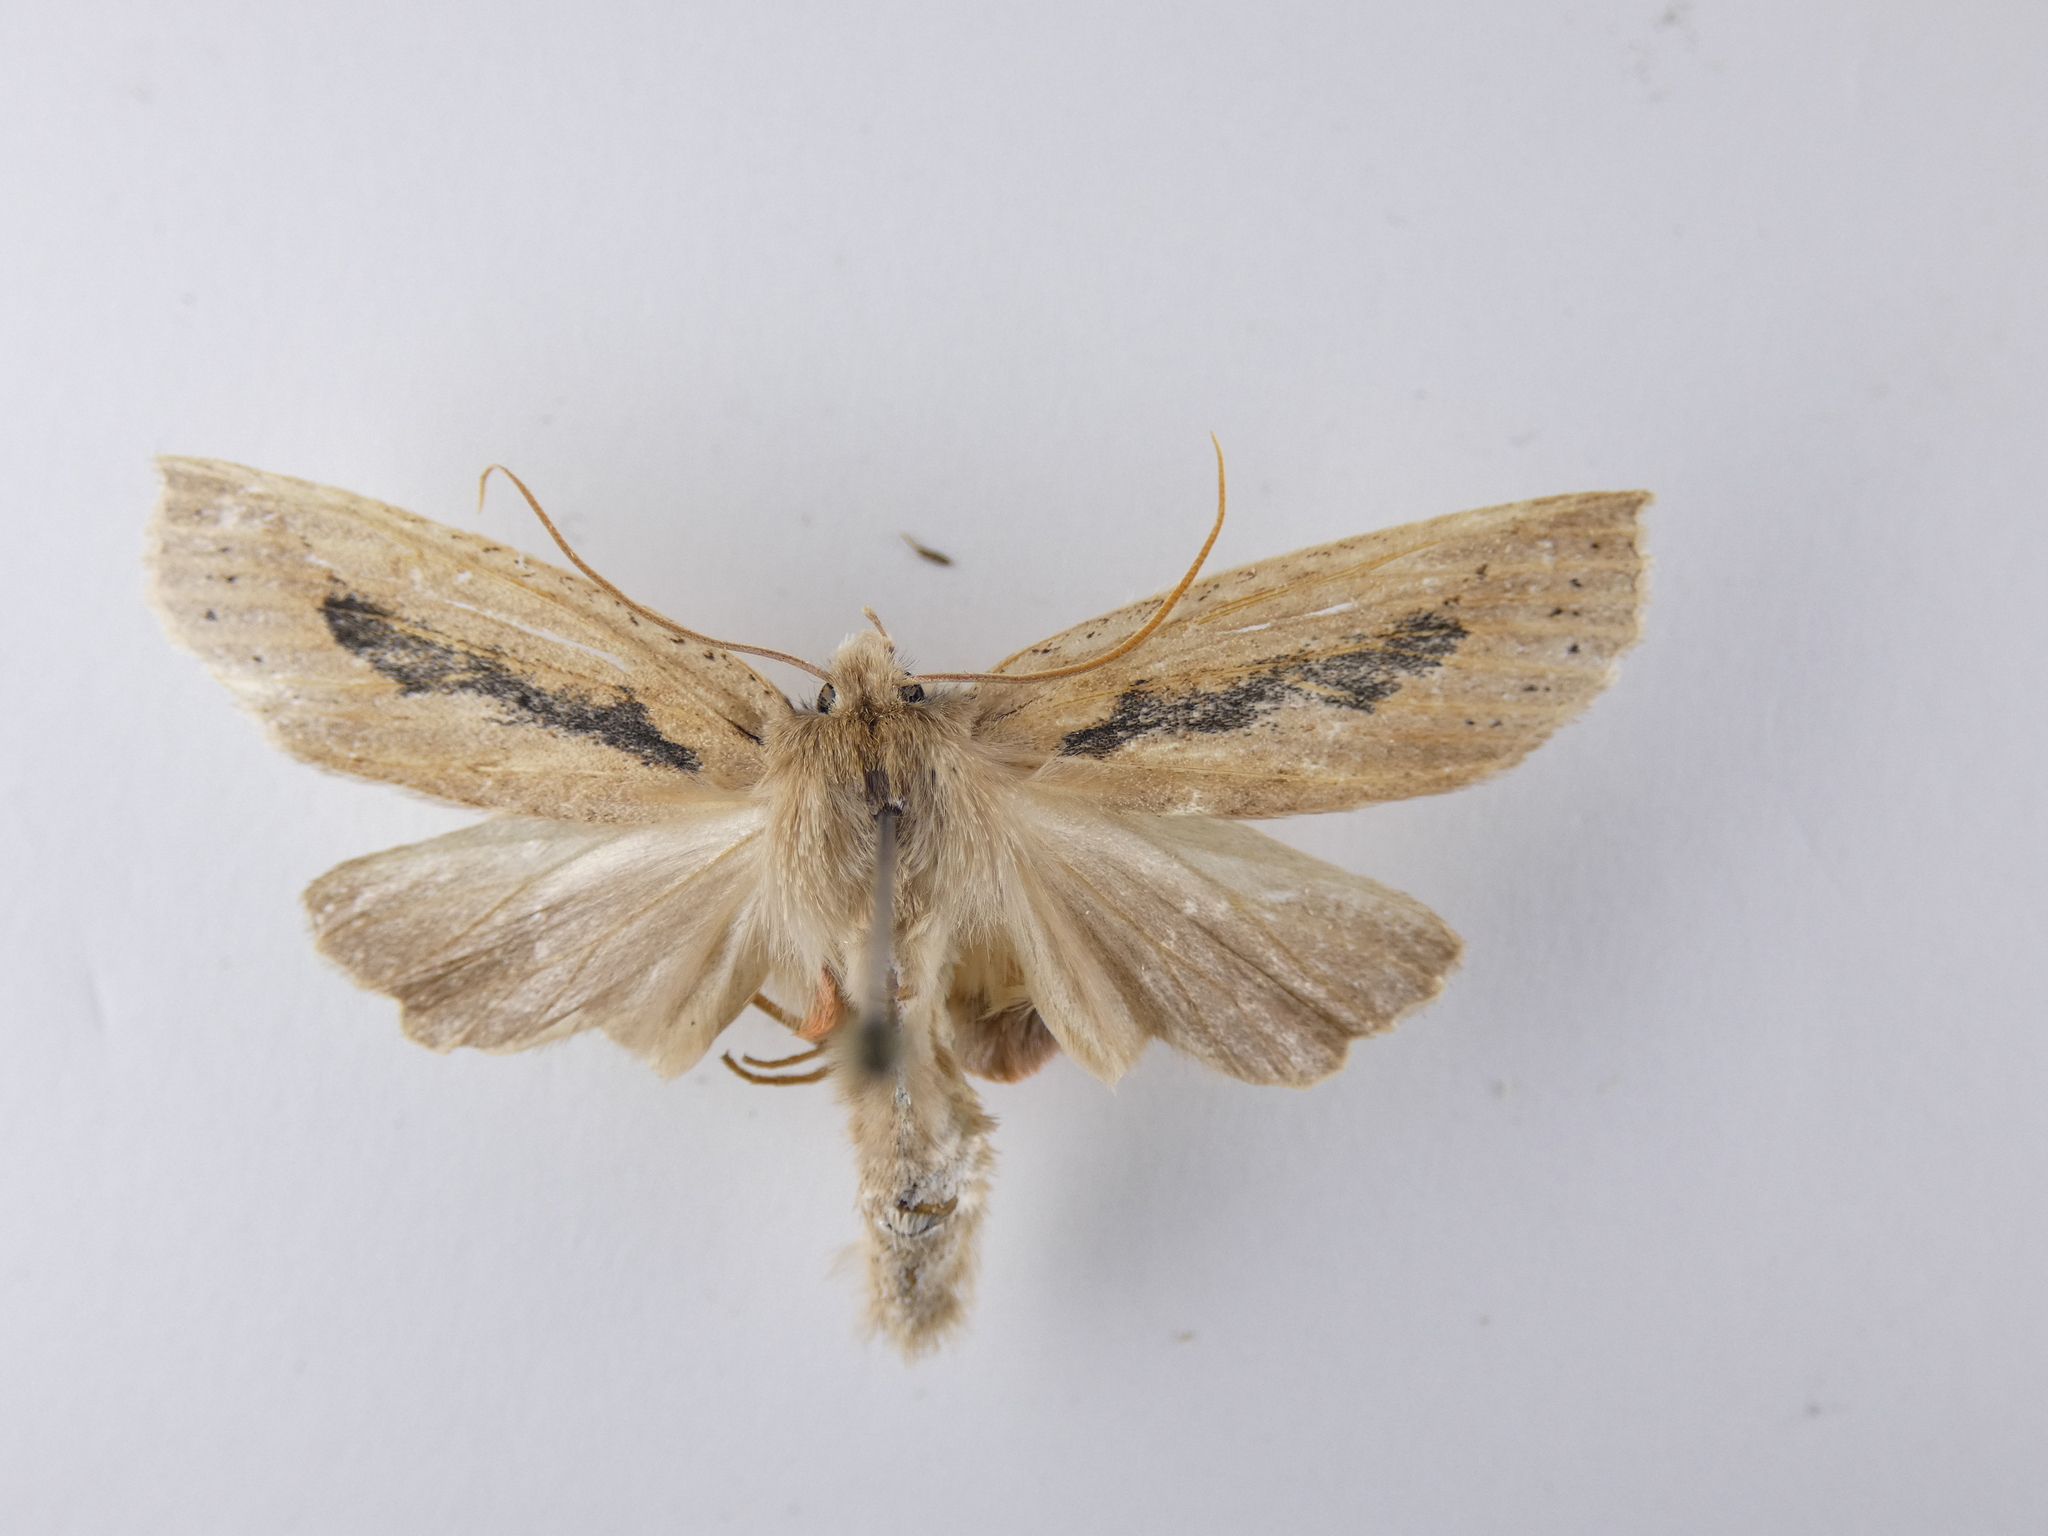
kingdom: Animalia
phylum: Arthropoda
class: Insecta
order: Lepidoptera
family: Geometridae
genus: Declana
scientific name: Declana leptomera
